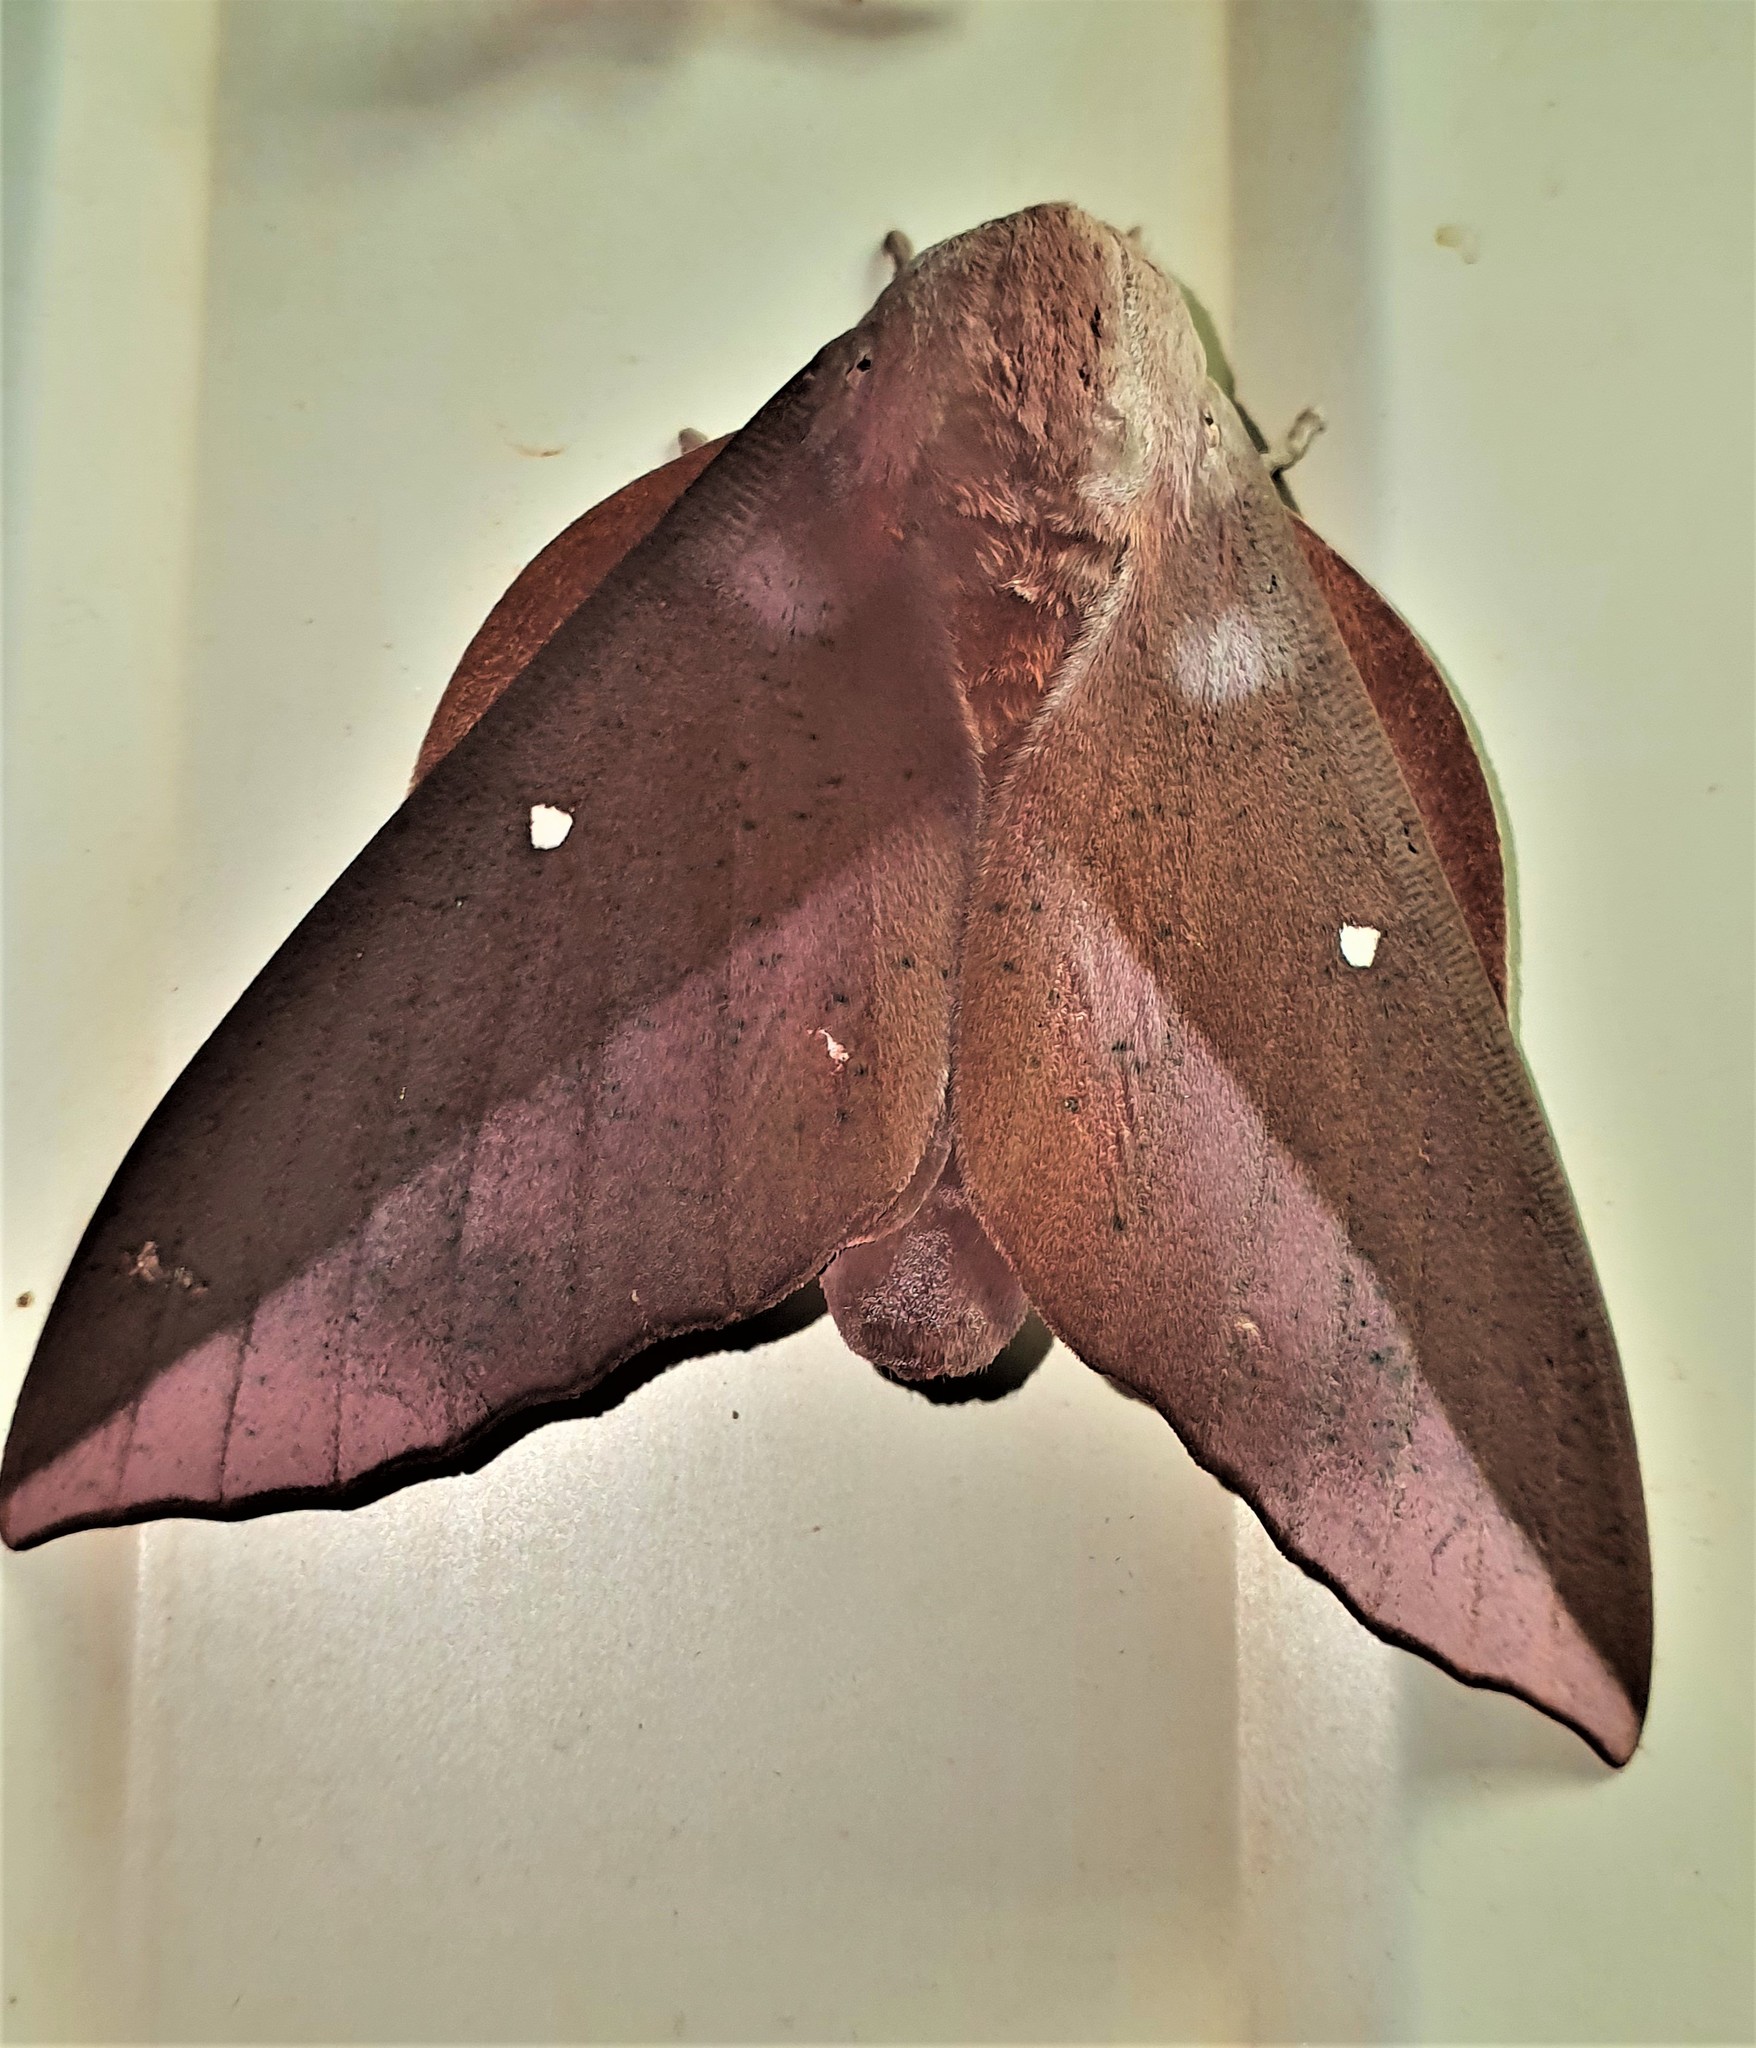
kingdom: Animalia
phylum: Arthropoda
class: Insecta
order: Lepidoptera
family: Saturniidae
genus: Othorene
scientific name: Othorene hodeva
